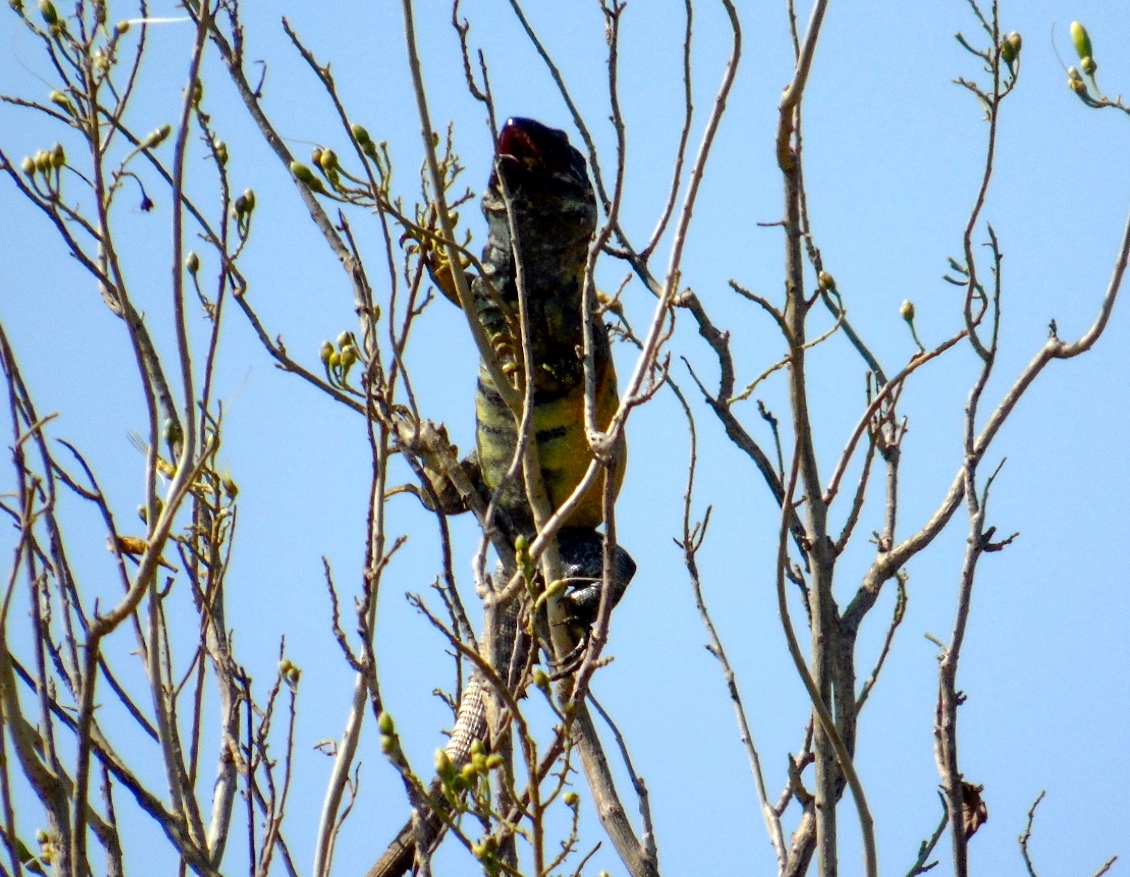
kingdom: Animalia
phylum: Chordata
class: Squamata
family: Iguanidae
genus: Ctenosaura
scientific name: Ctenosaura pectinata
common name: Guerreran spiny-tailed iguana
